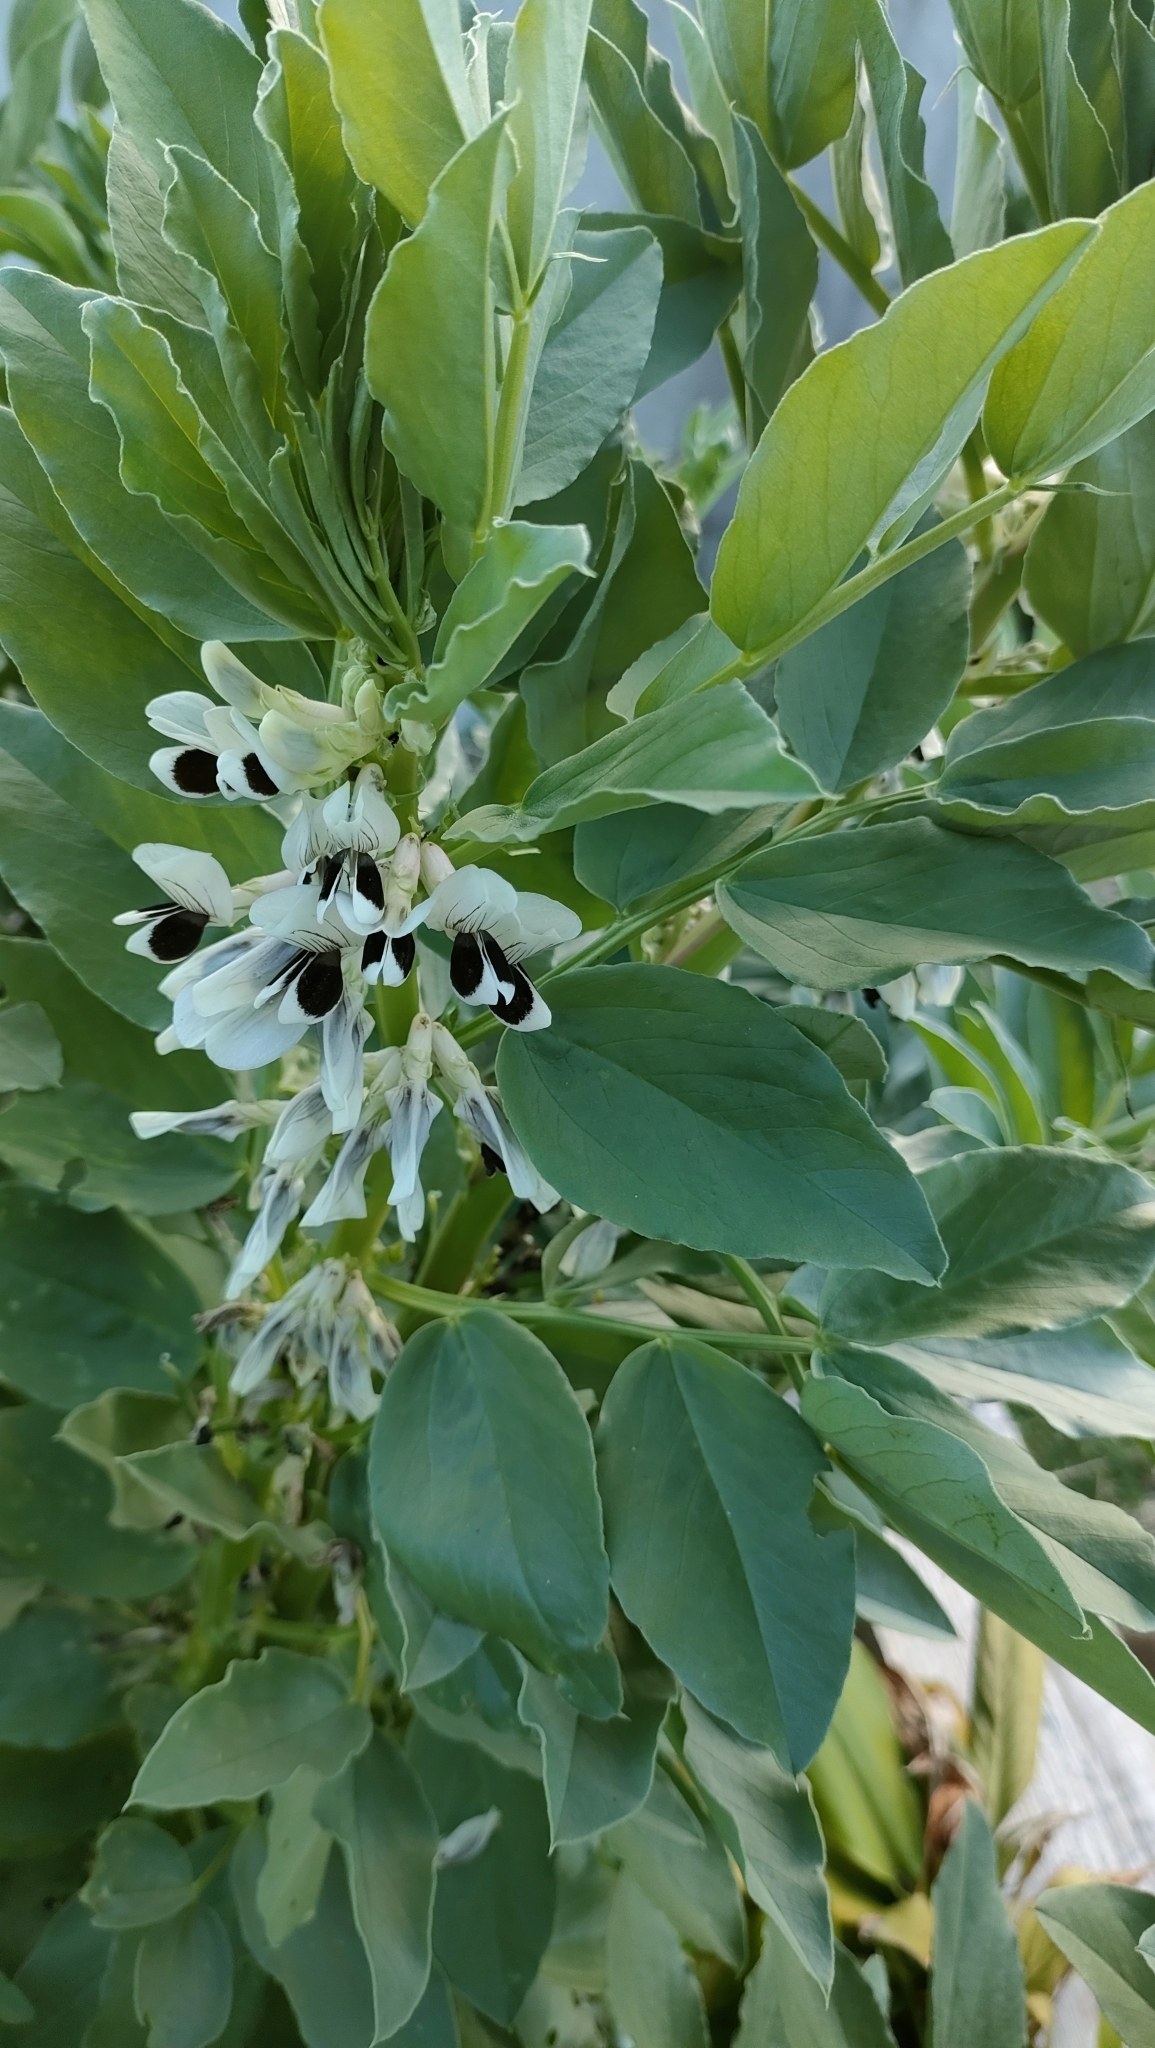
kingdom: Plantae
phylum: Tracheophyta
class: Magnoliopsida
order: Fabales
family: Fabaceae
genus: Vicia
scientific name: Vicia faba
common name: Broad bean
